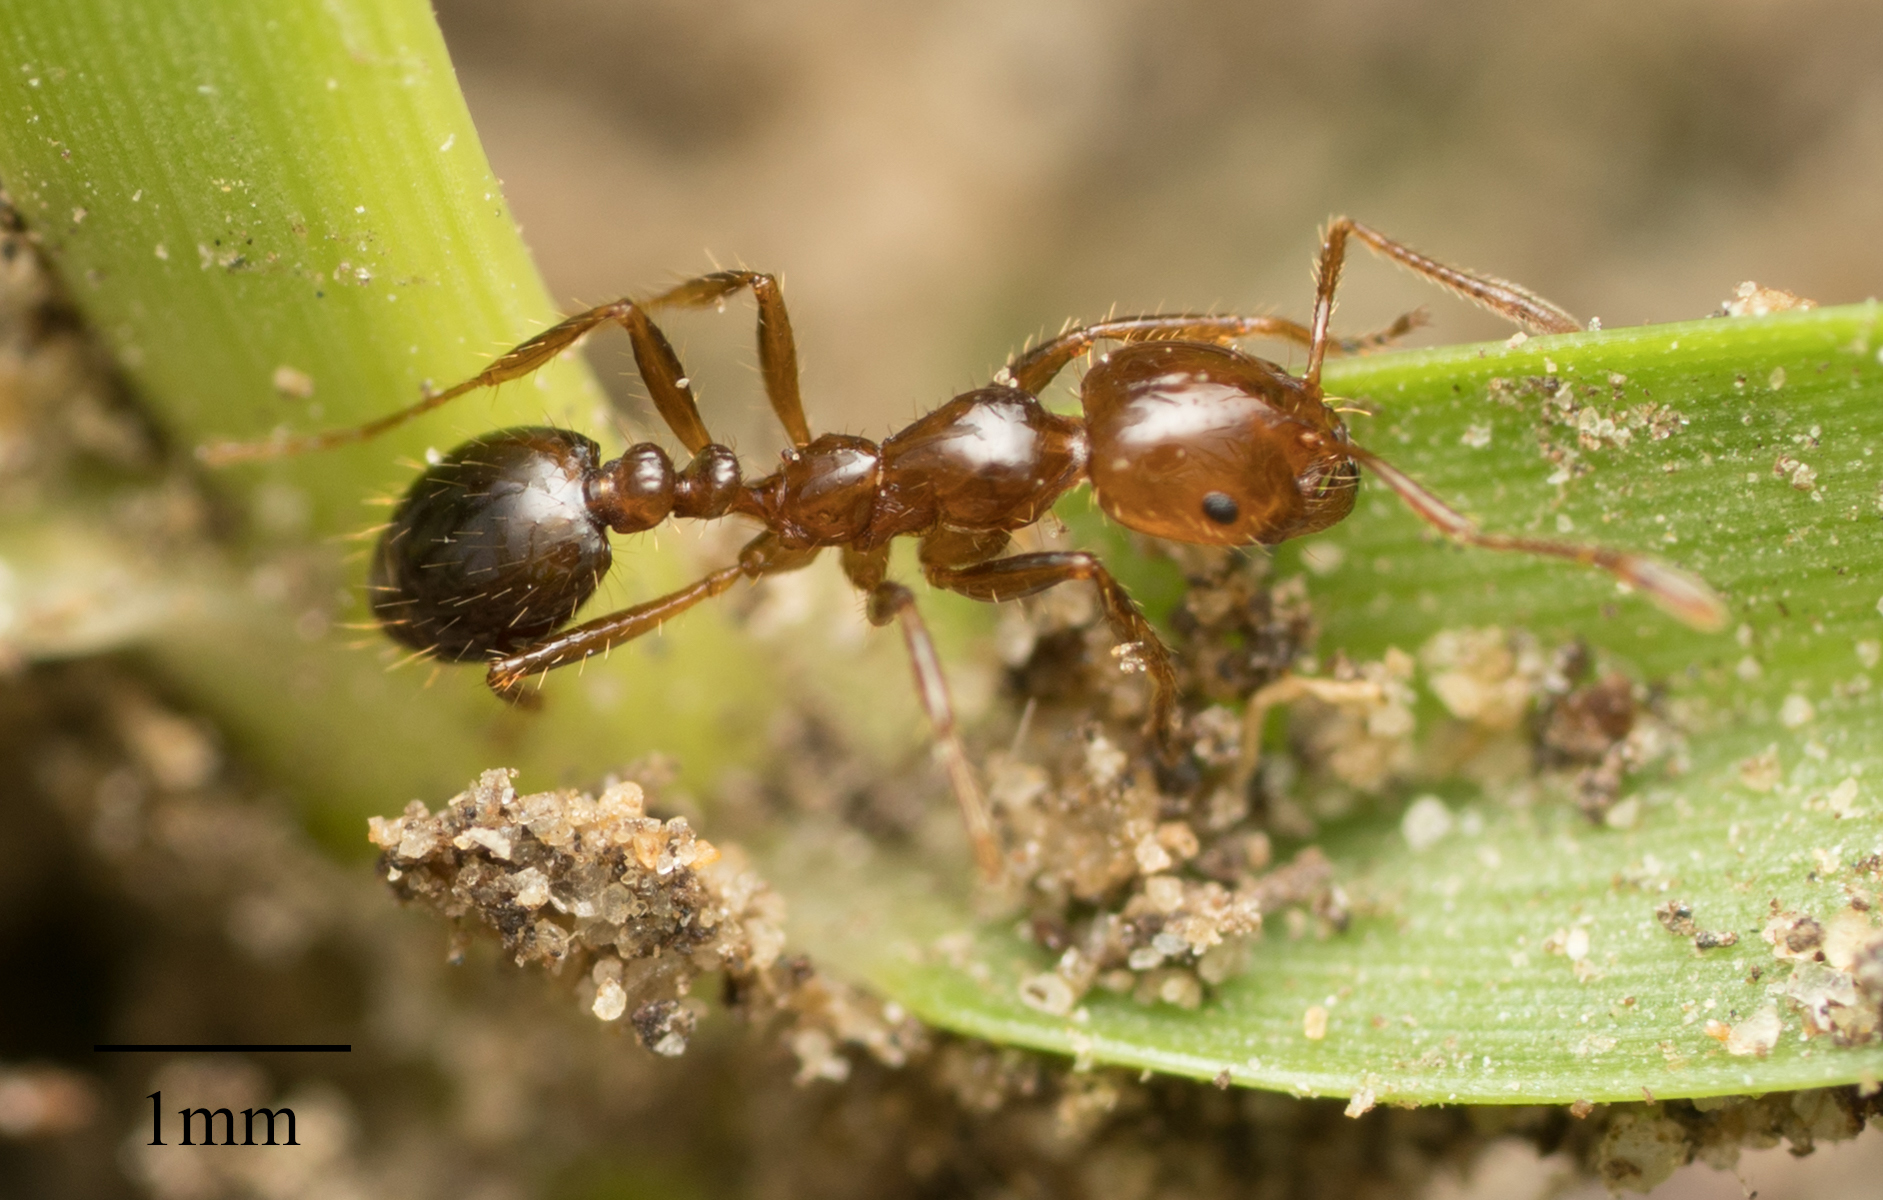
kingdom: Animalia
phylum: Arthropoda
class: Insecta
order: Hymenoptera
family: Formicidae
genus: Solenopsis
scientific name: Solenopsis invicta
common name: Red imported fire ant
